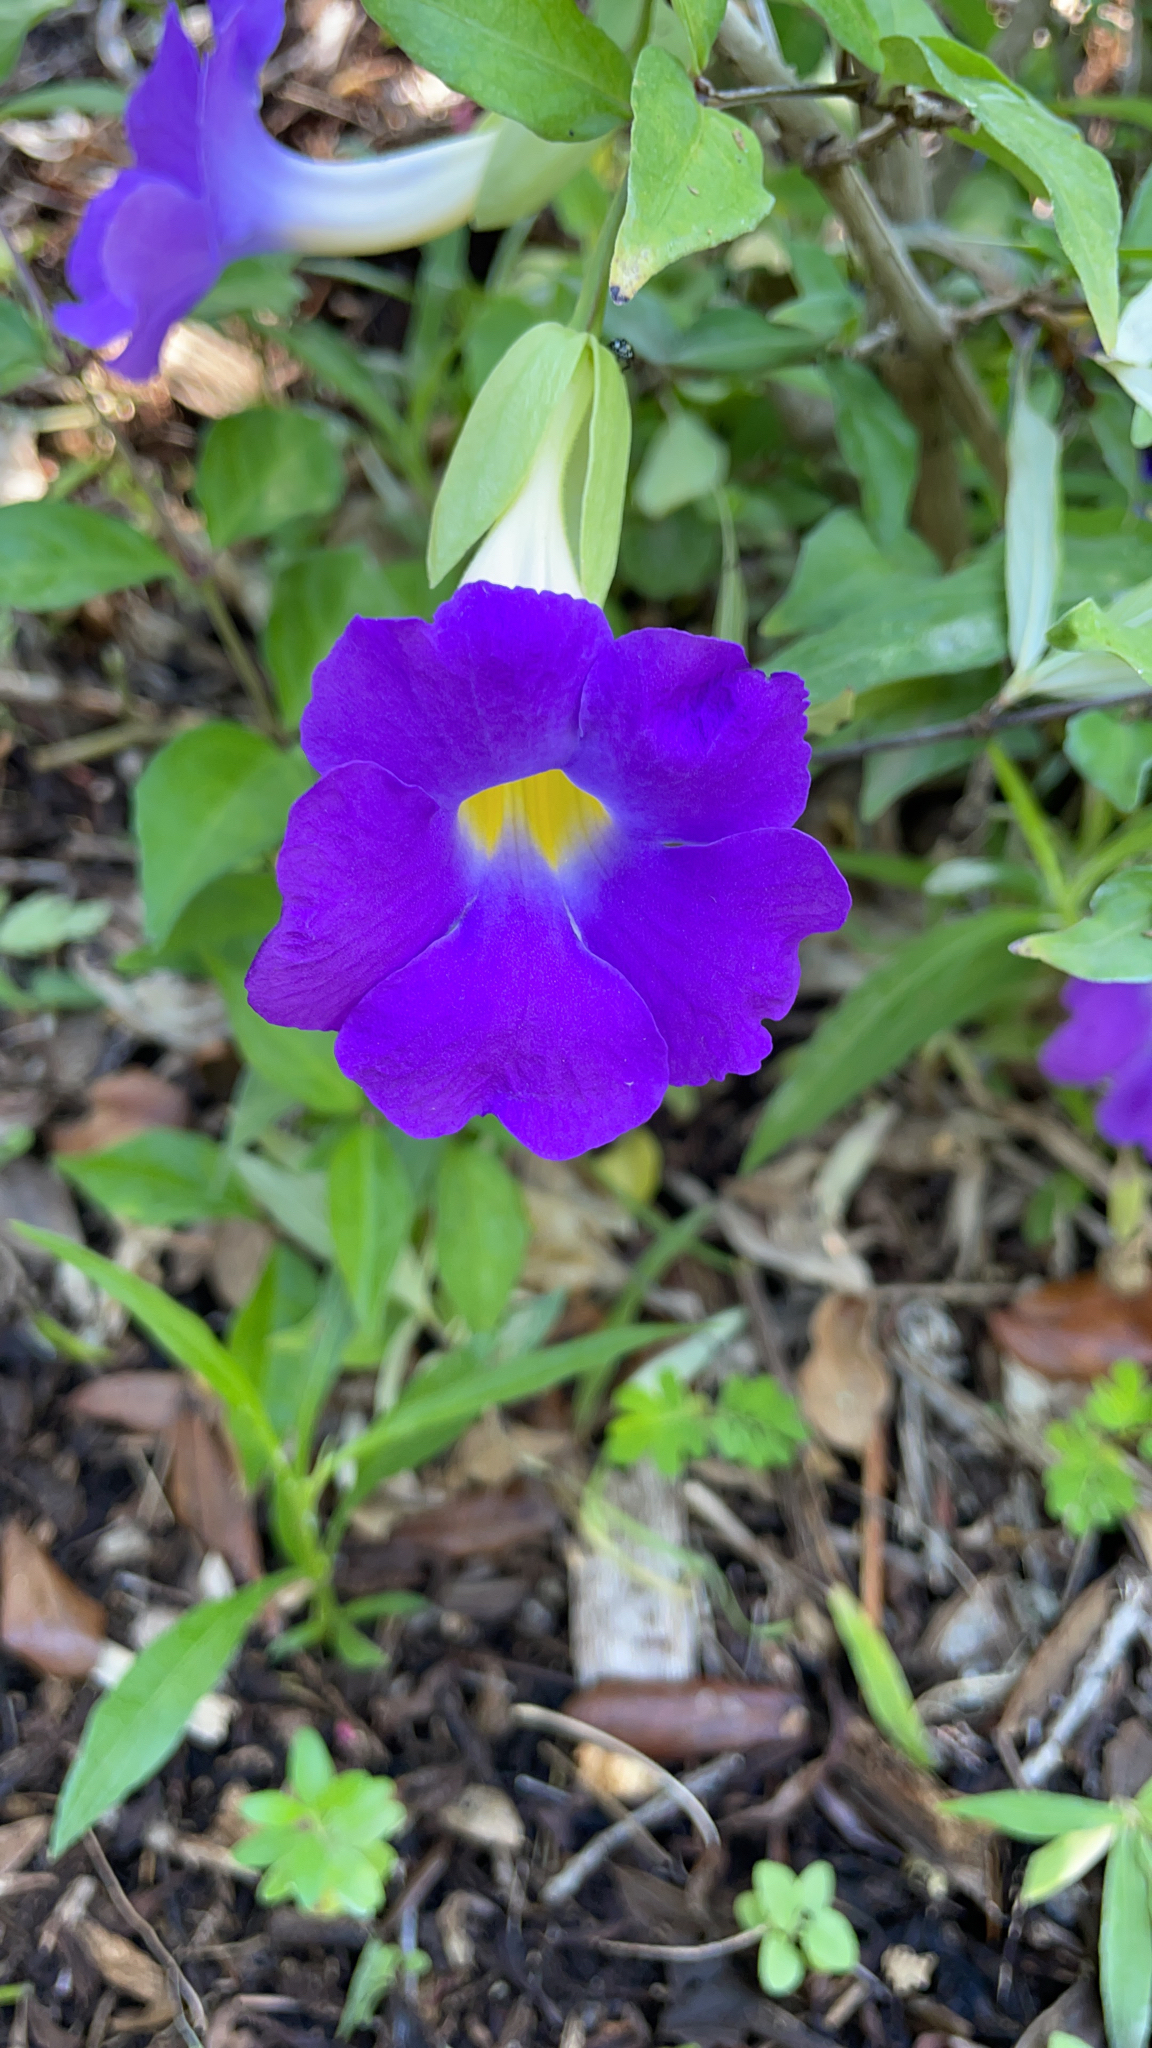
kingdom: Plantae
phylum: Tracheophyta
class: Magnoliopsida
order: Lamiales
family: Acanthaceae
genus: Thunbergia
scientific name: Thunbergia erecta
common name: Bush clockvine
